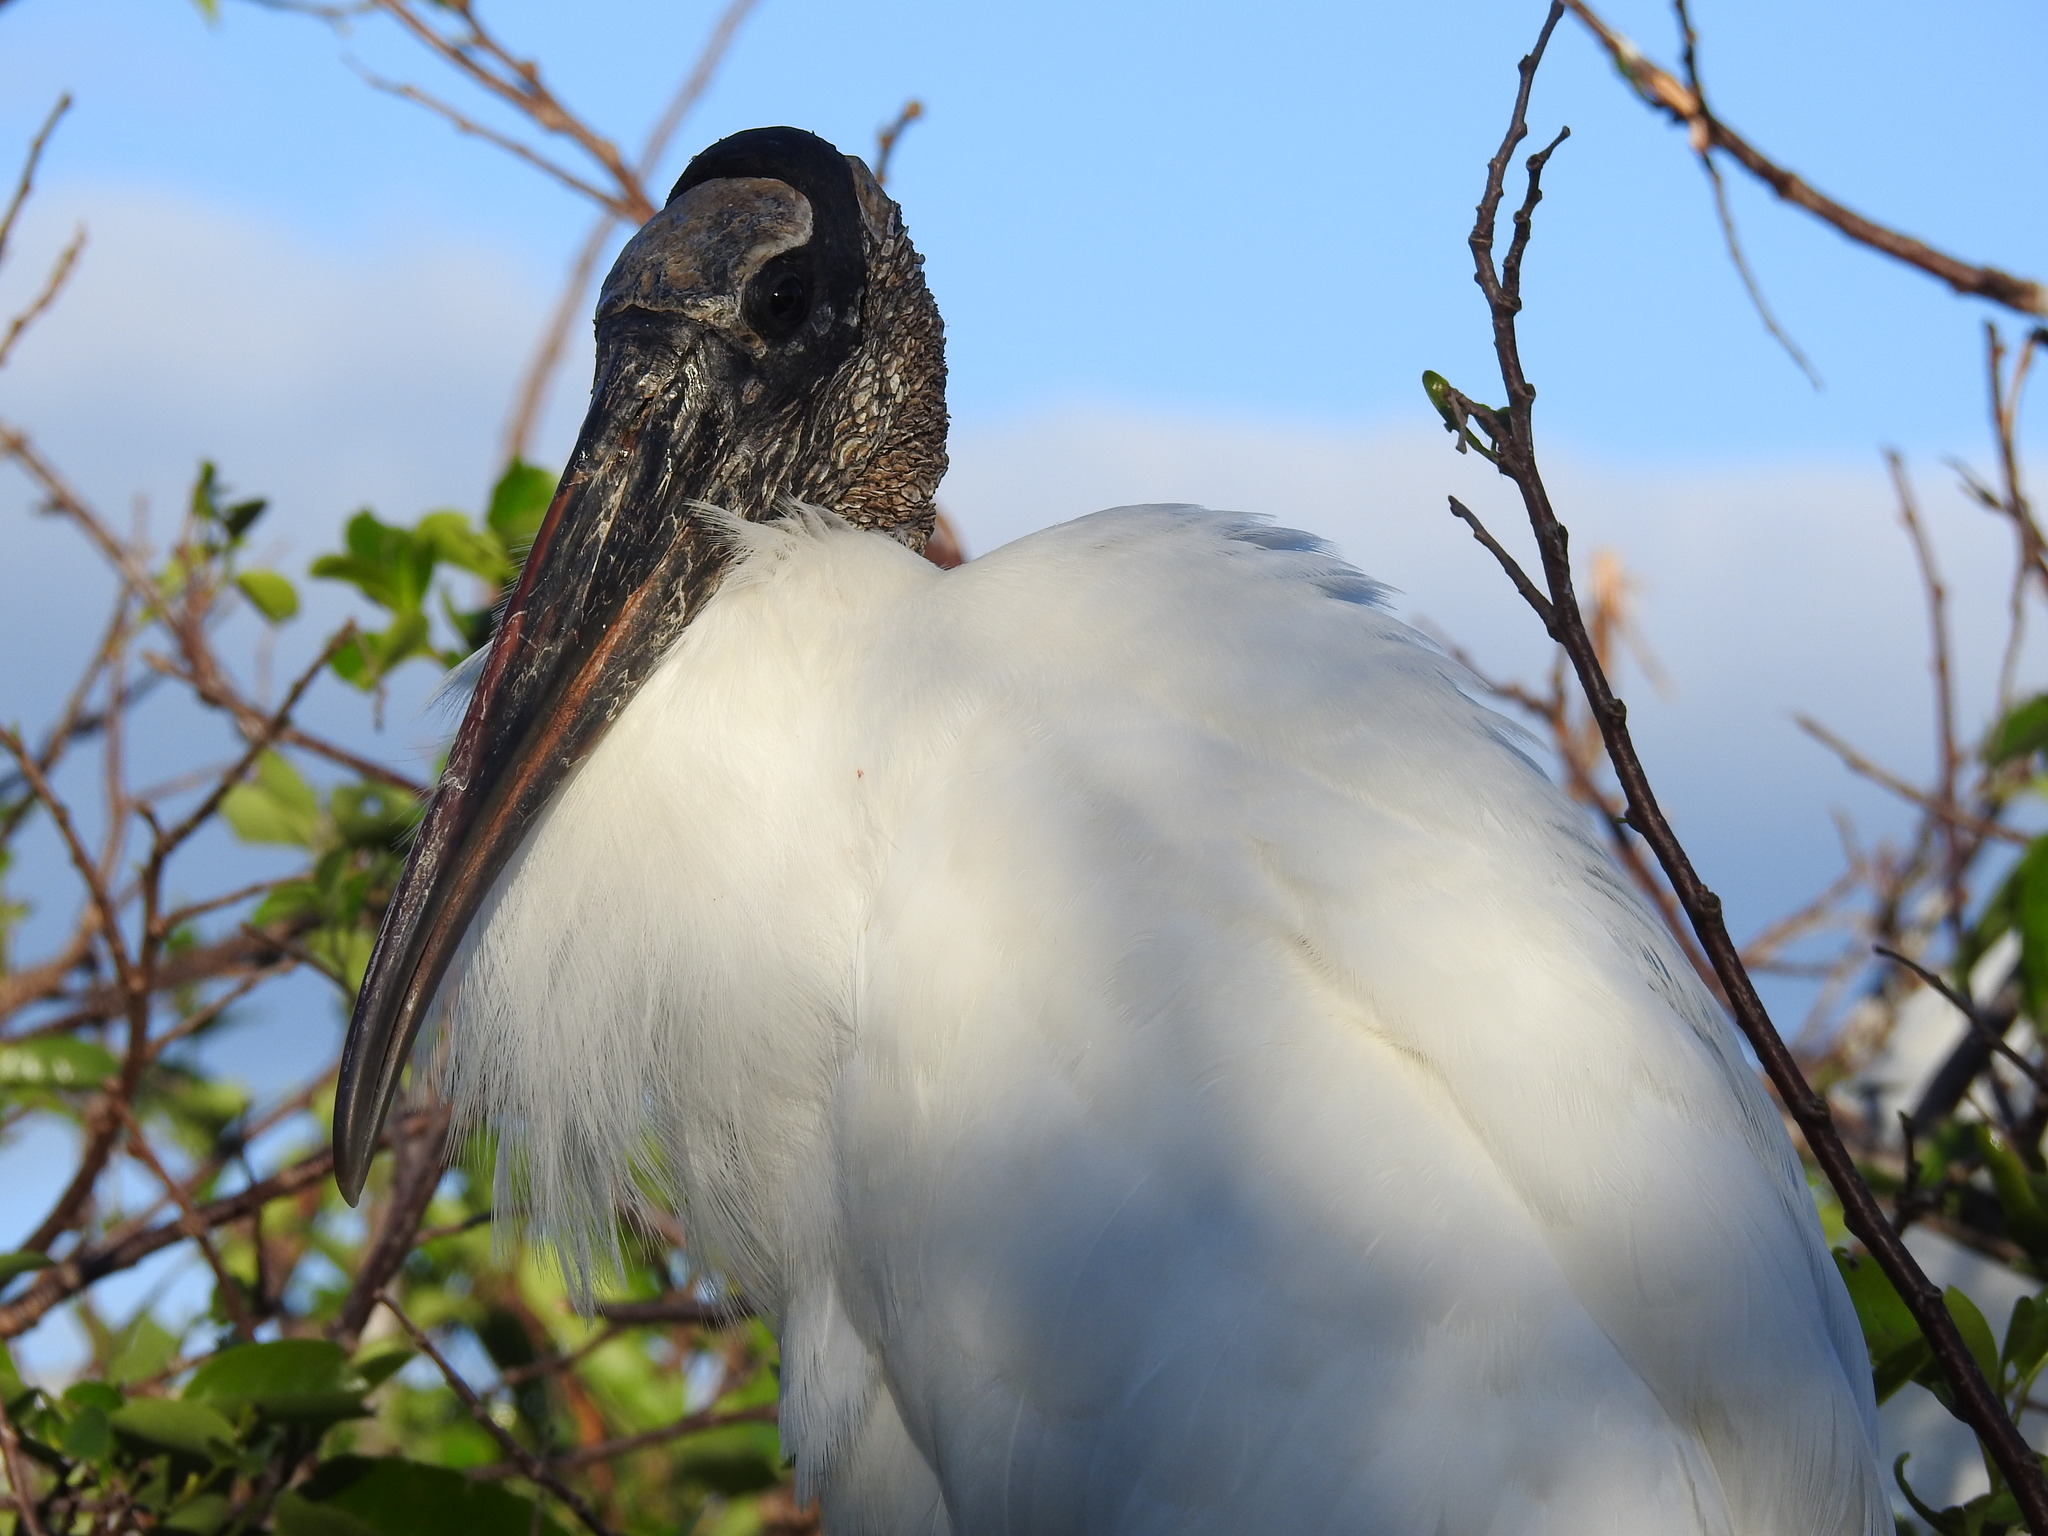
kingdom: Animalia
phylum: Chordata
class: Aves
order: Ciconiiformes
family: Ciconiidae
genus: Mycteria
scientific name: Mycteria americana
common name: Wood stork
